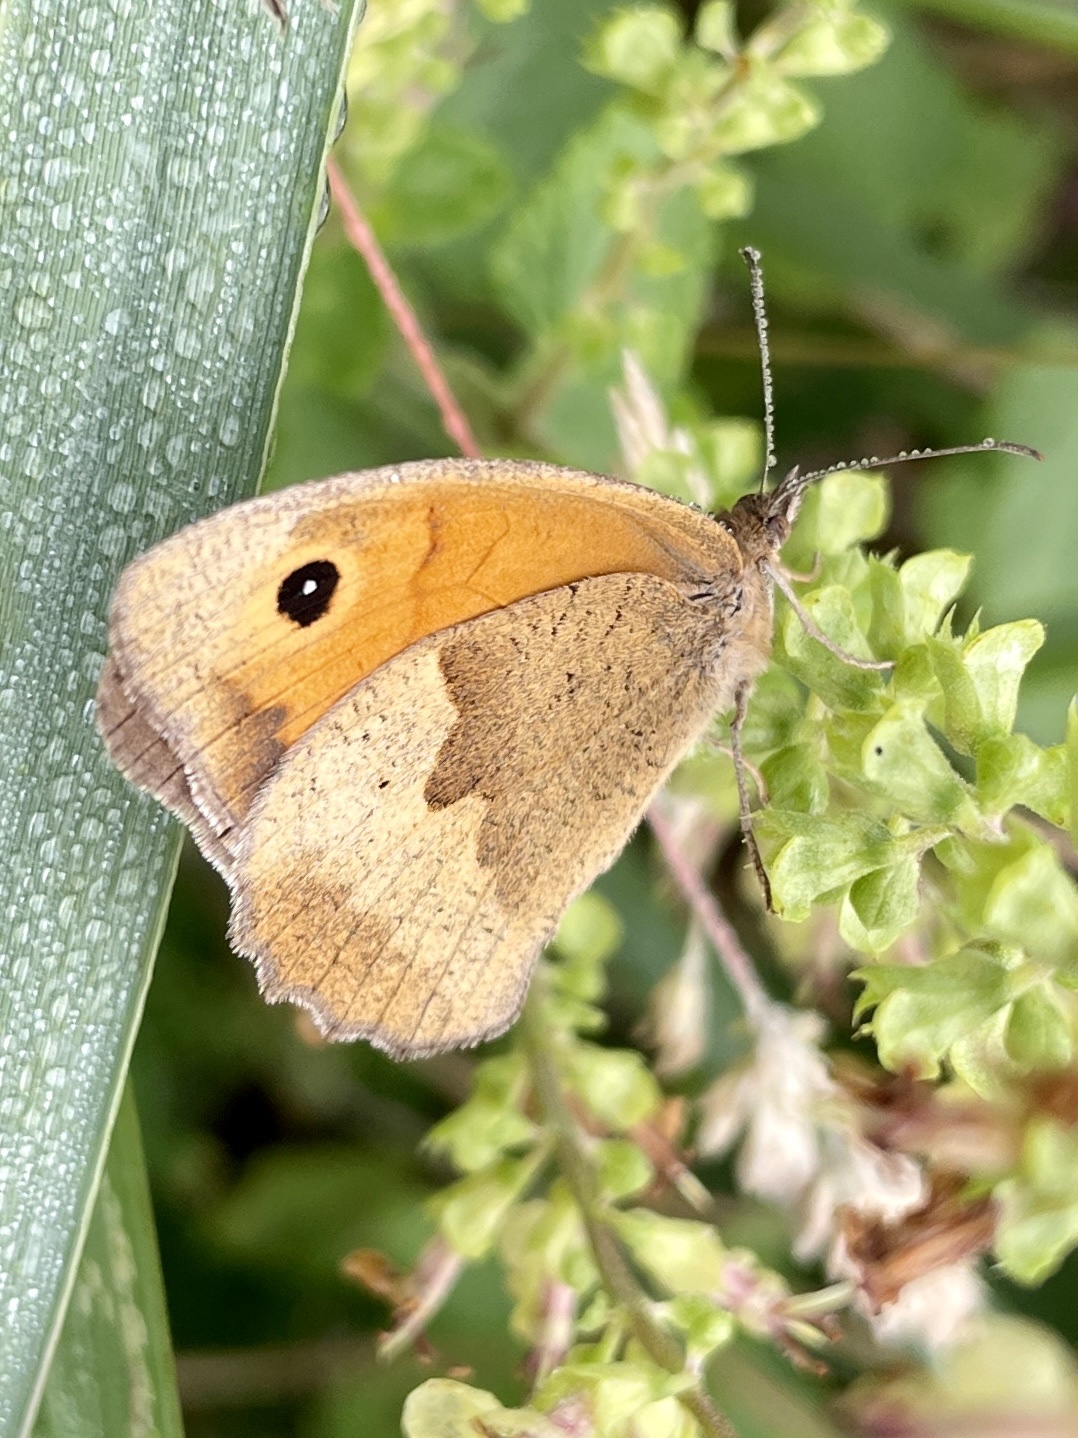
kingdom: Animalia
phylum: Arthropoda
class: Insecta
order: Lepidoptera
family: Nymphalidae
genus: Maniola
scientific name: Maniola jurtina
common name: Meadow brown
